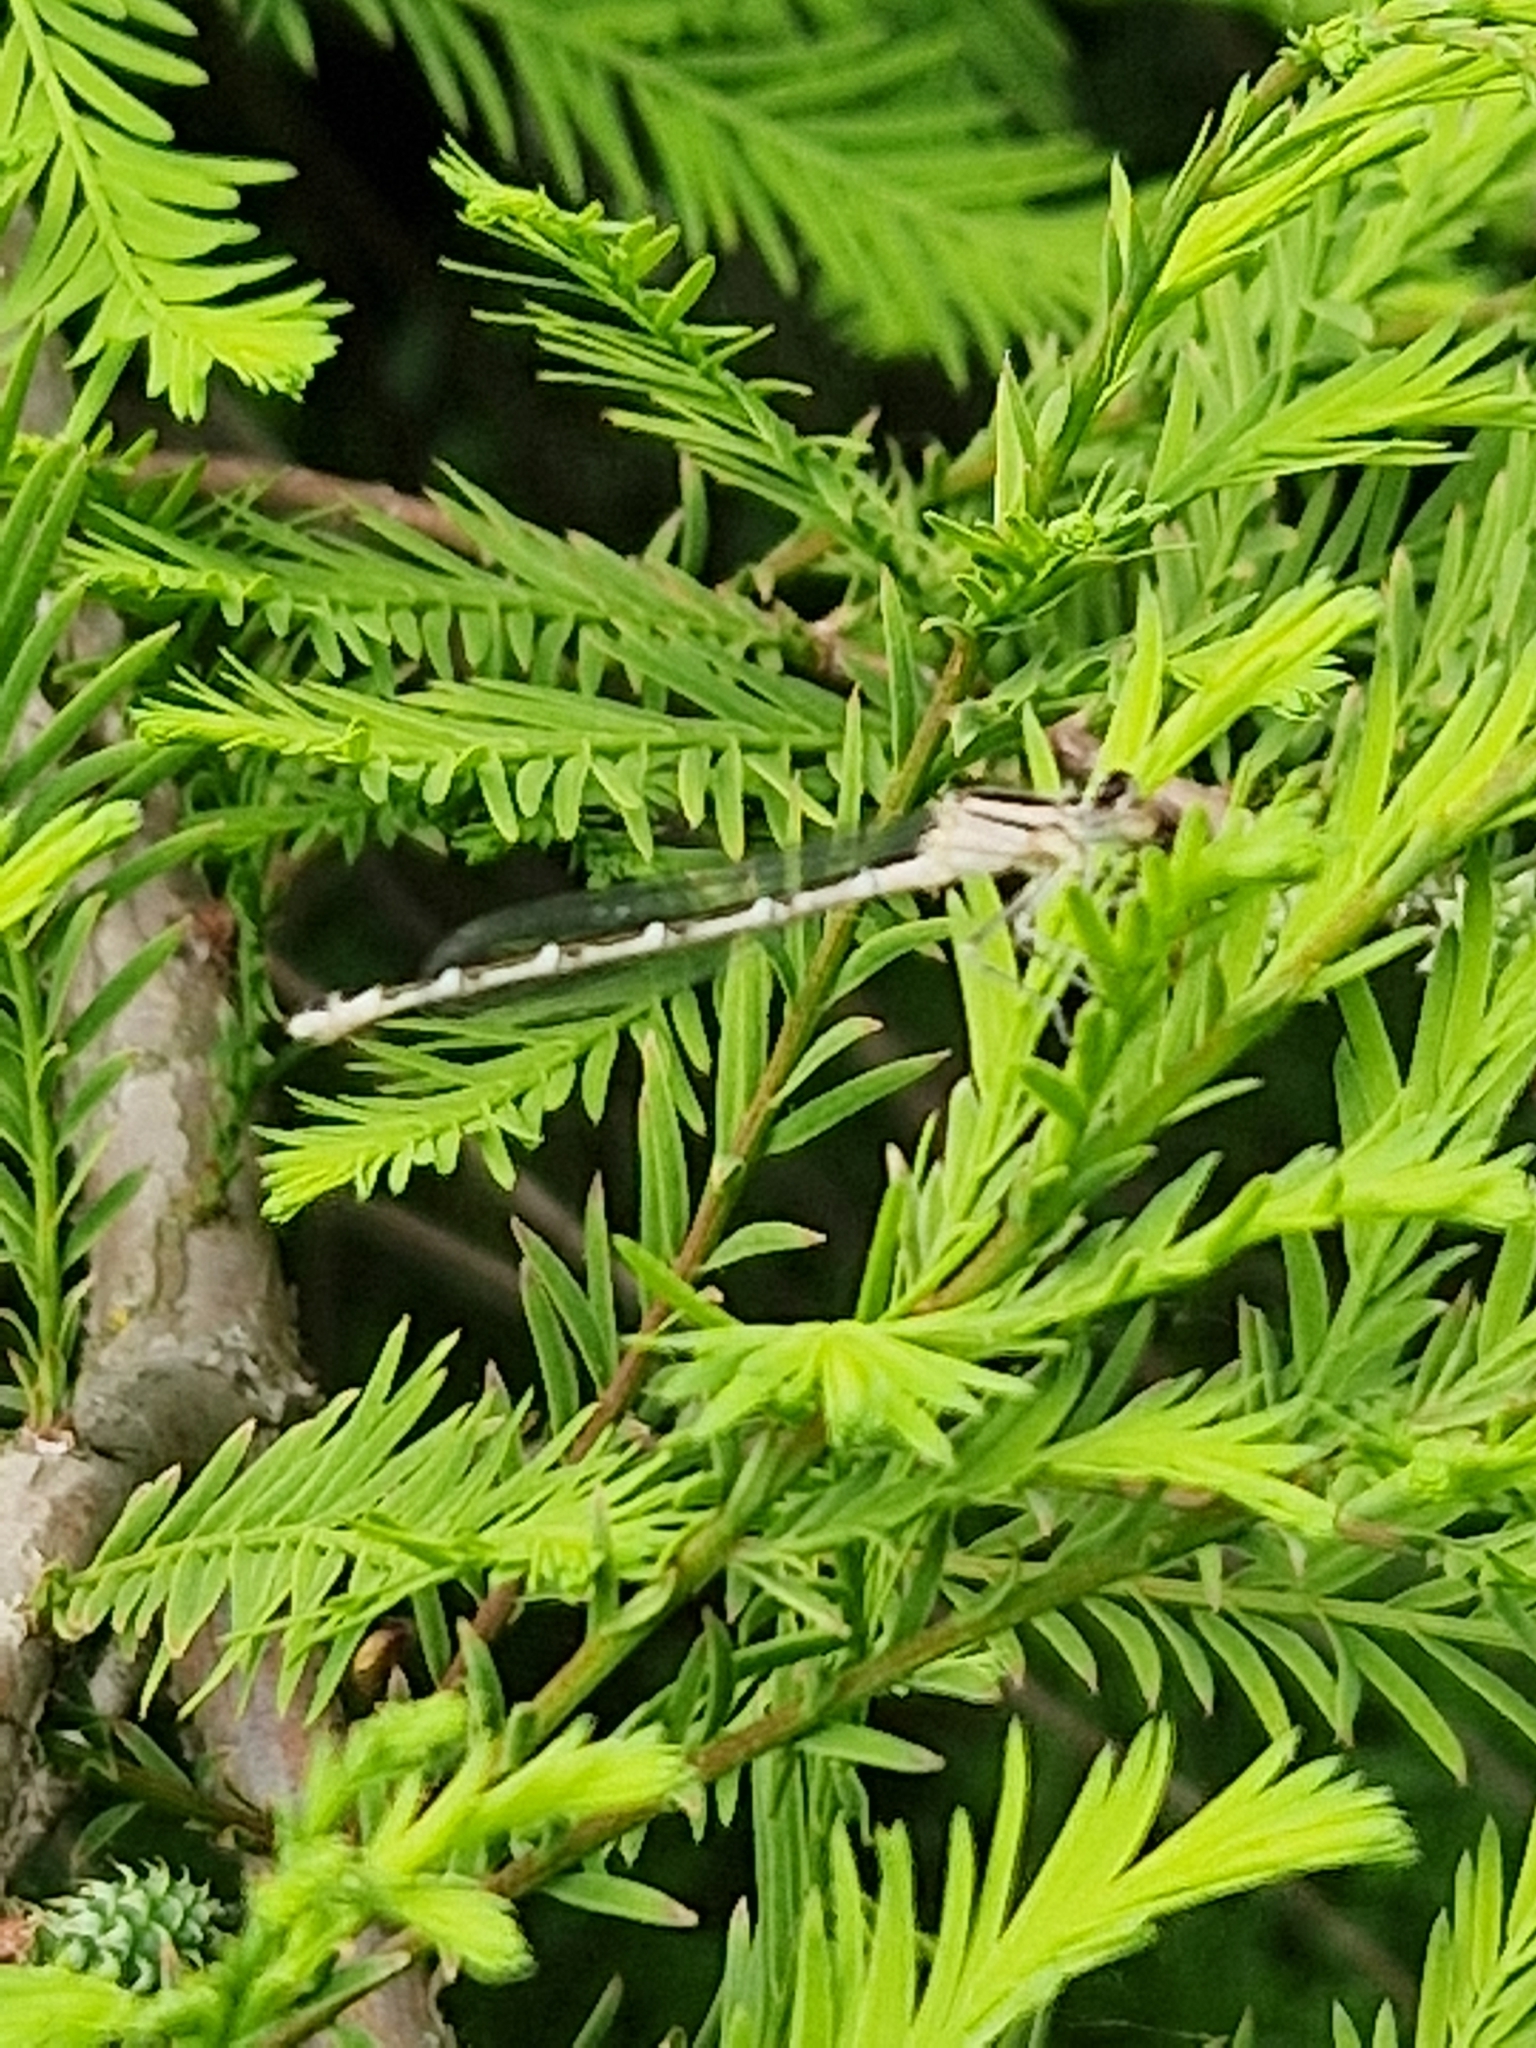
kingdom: Animalia
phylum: Arthropoda
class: Insecta
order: Odonata
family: Coenagrionidae
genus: Enallagma
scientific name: Enallagma cyathigerum
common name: Common blue damselfly
